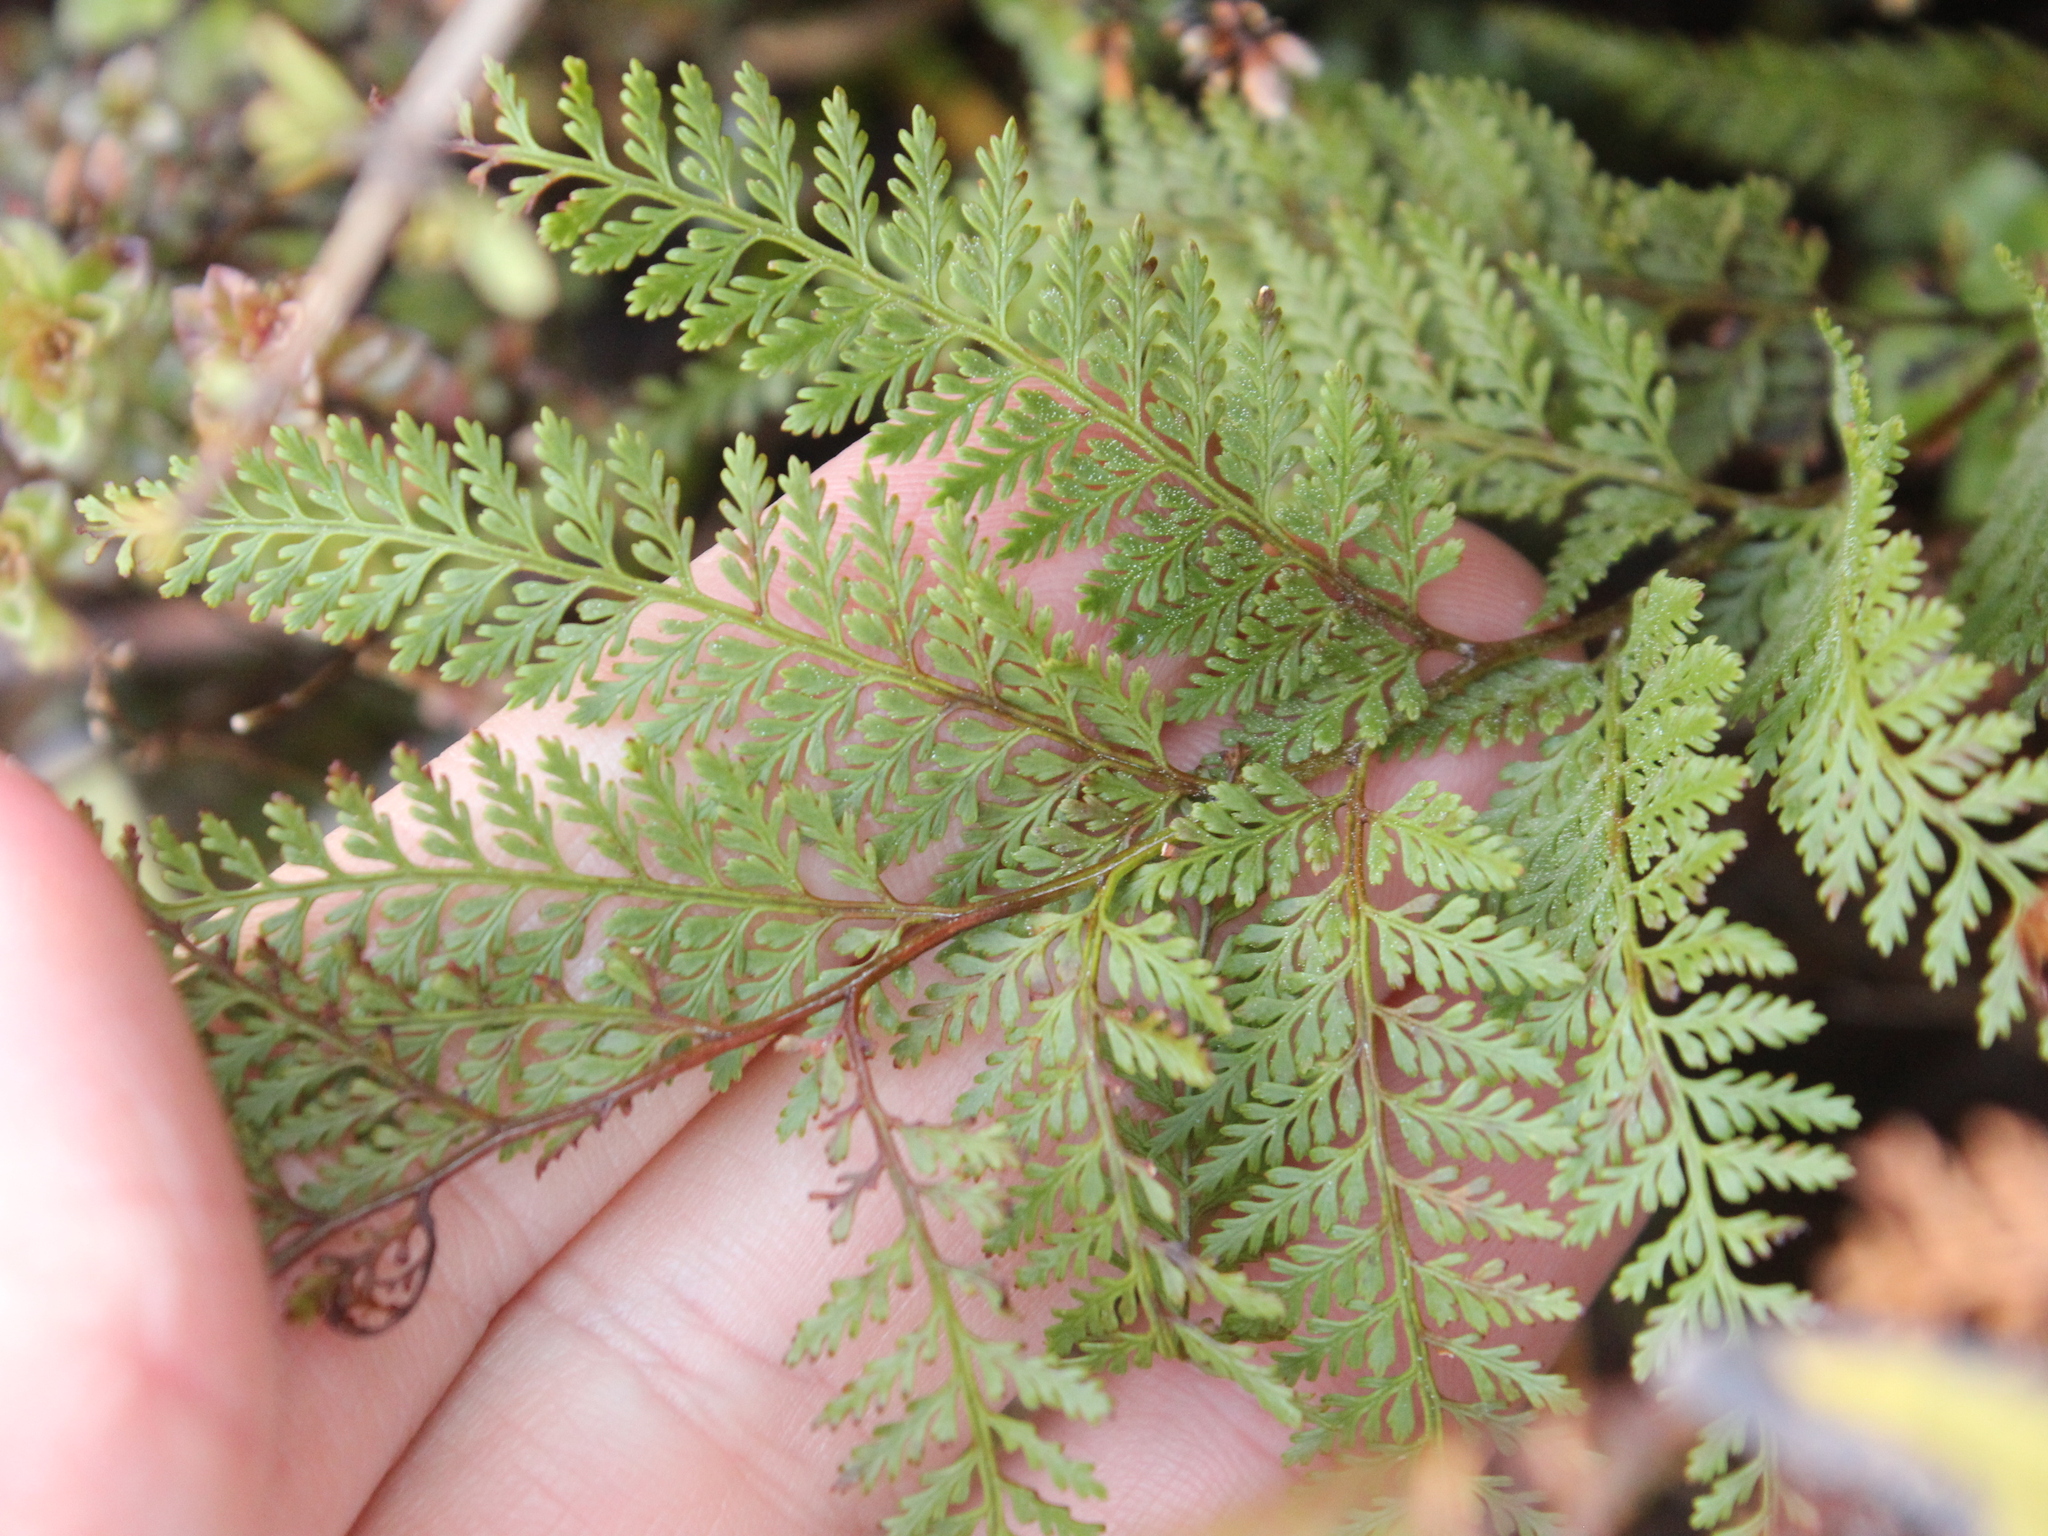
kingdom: Plantae
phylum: Tracheophyta
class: Polypodiopsida
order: Polypodiales
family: Dennstaedtiaceae
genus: Paesia
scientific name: Paesia scaberula
